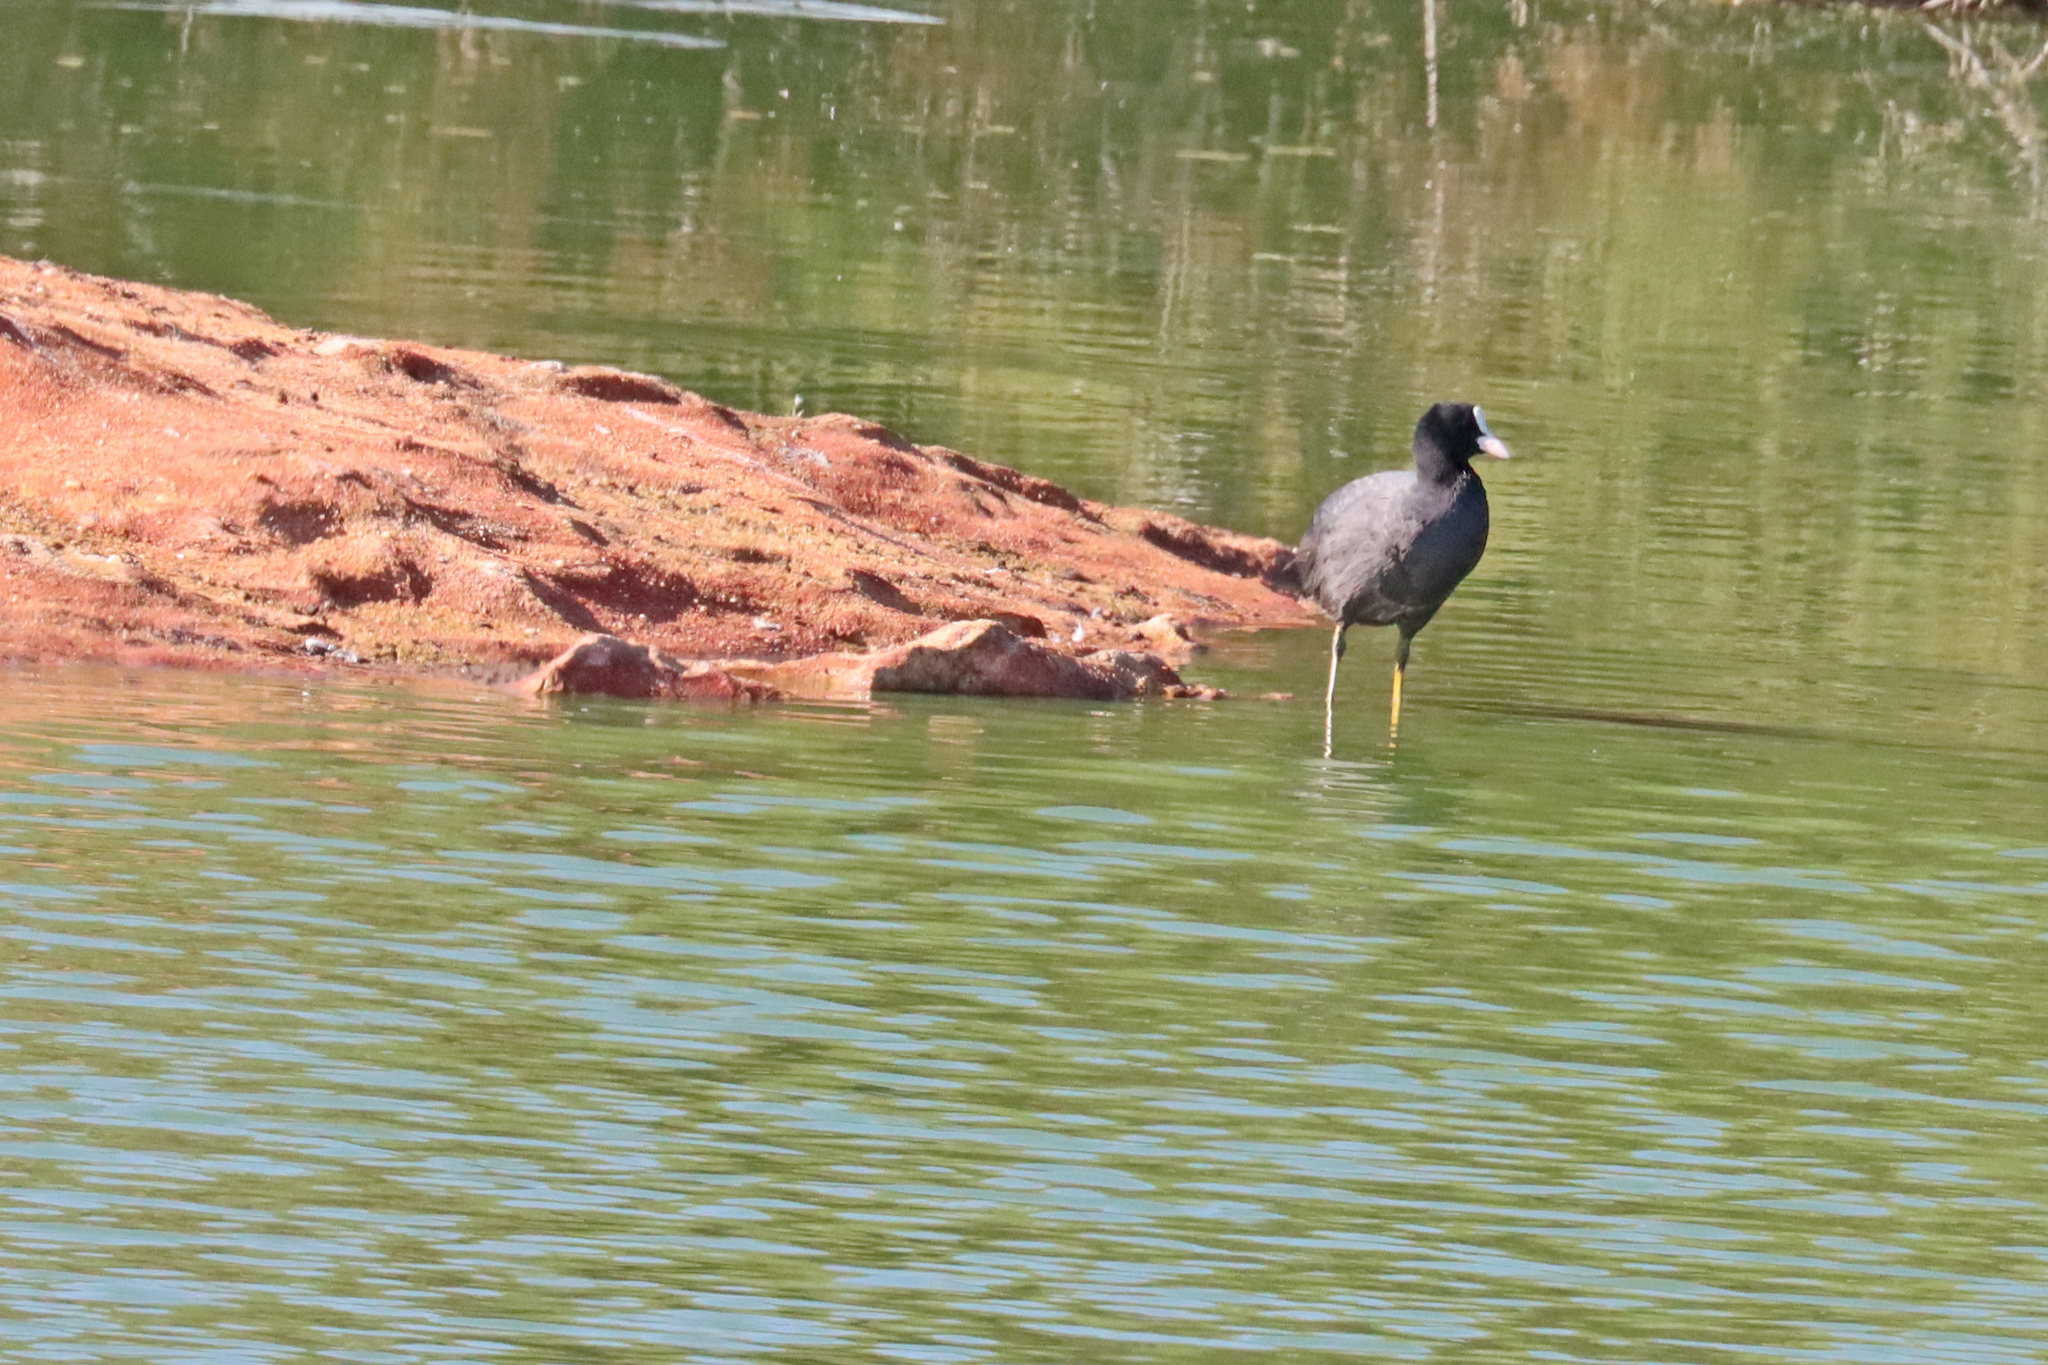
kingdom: Animalia
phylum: Chordata
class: Aves
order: Gruiformes
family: Rallidae
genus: Fulica
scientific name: Fulica atra
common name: Eurasian coot
